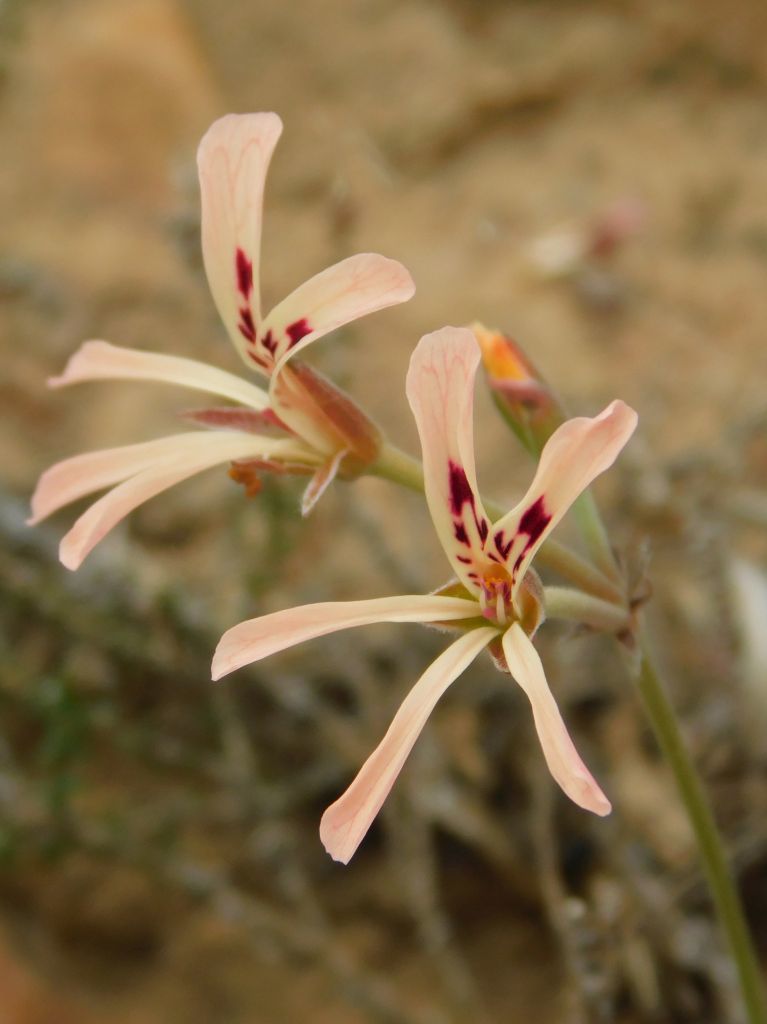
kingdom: Plantae
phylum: Tracheophyta
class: Magnoliopsida
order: Geraniales
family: Geraniaceae
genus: Pelargonium
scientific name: Pelargonium pinnatum
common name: Pinnated pelargonium
